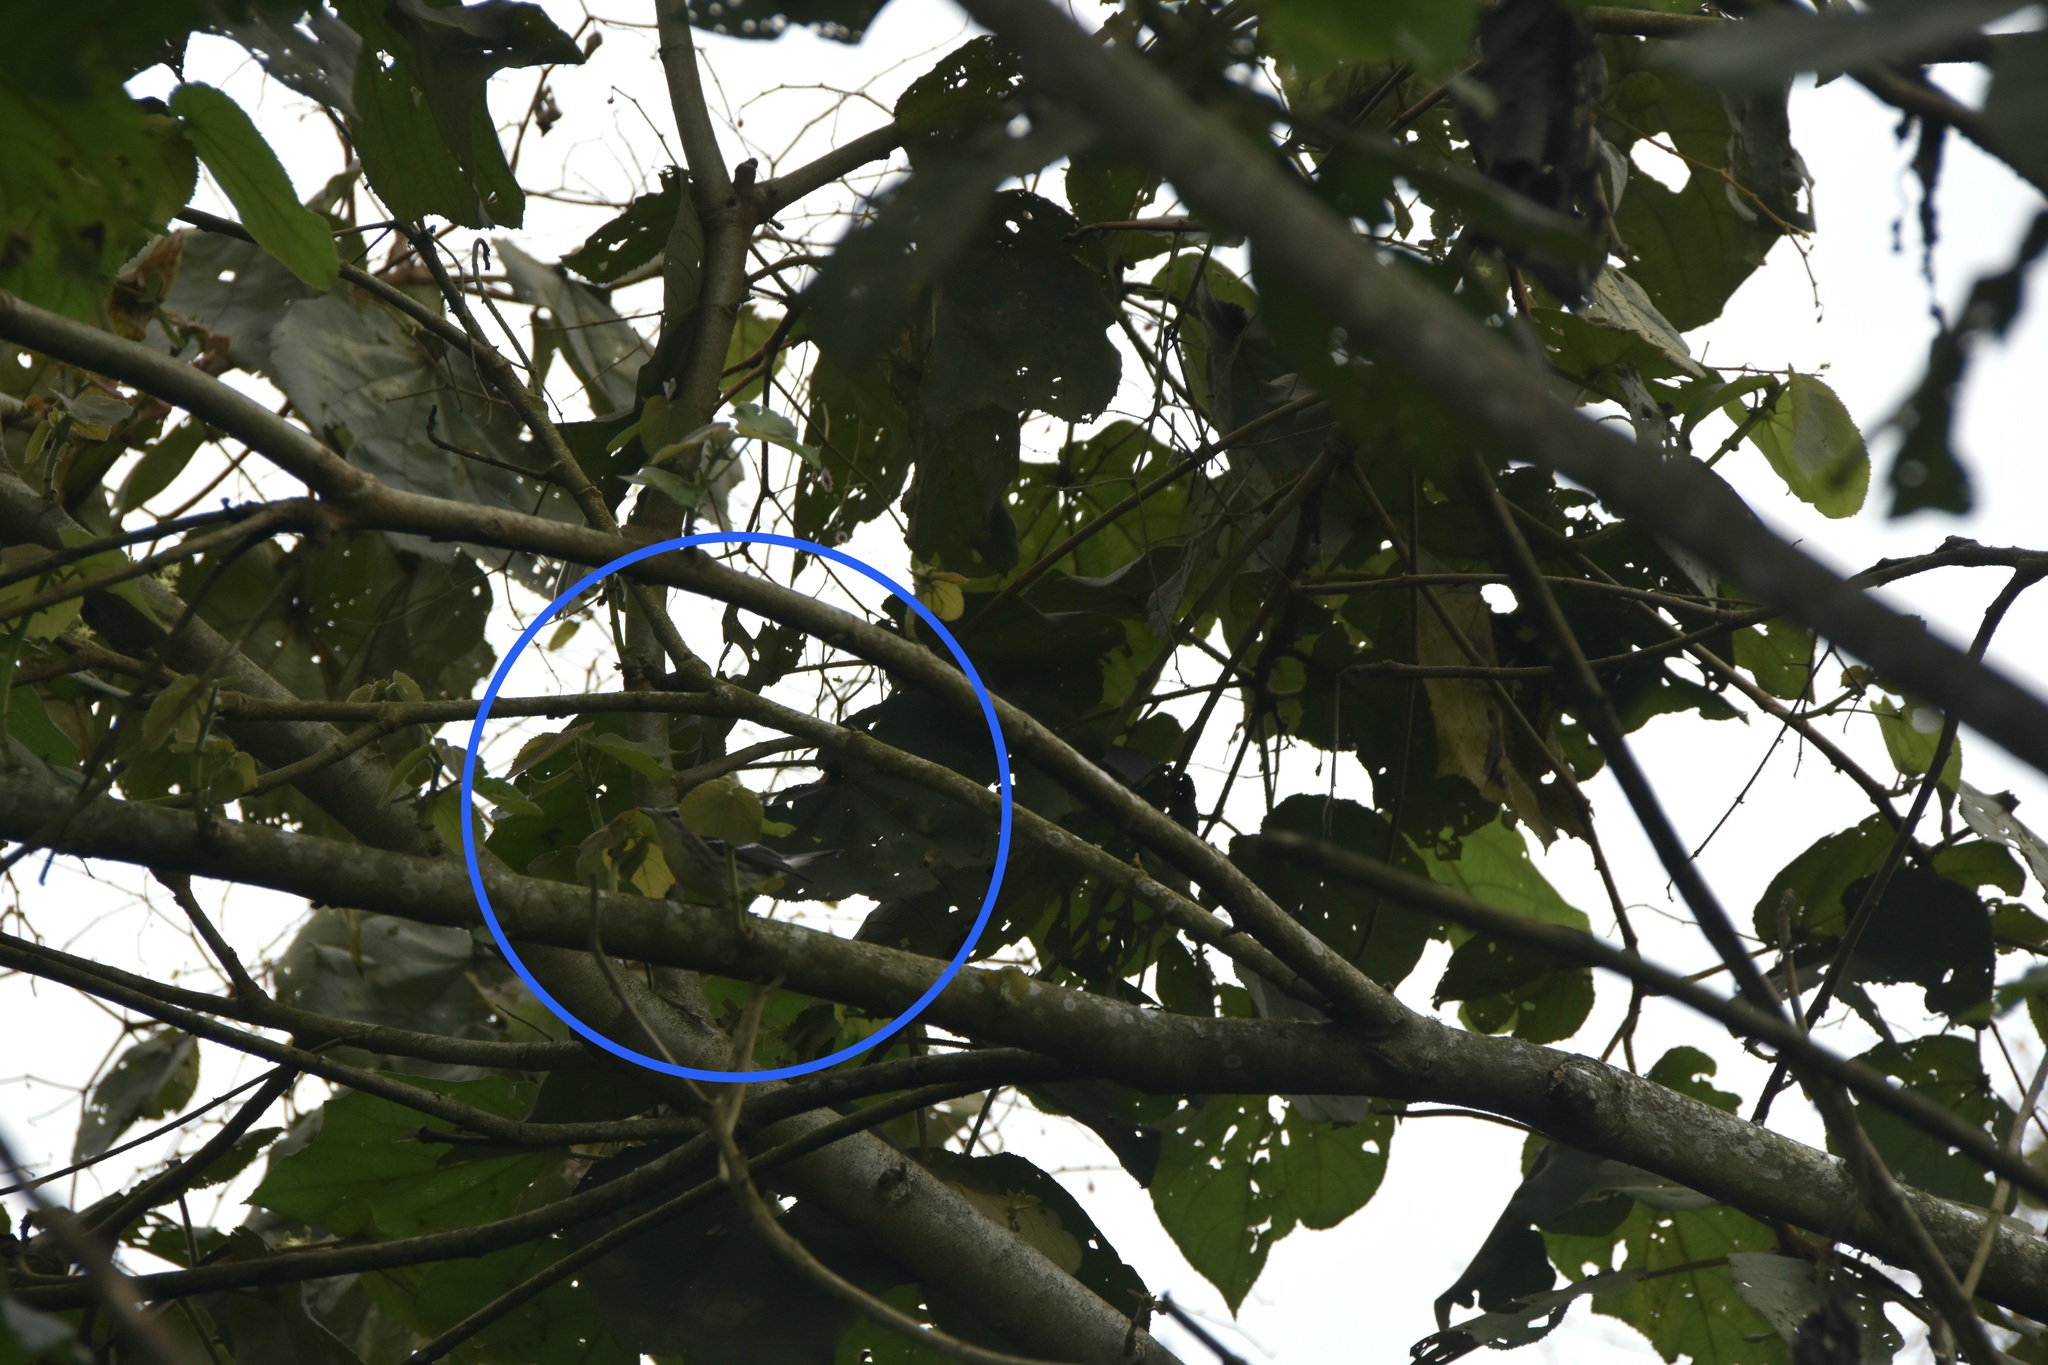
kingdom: Animalia
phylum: Chordata
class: Aves
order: Passeriformes
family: Parulidae
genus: Setophaga
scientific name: Setophaga fusca
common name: Blackburnian warbler
